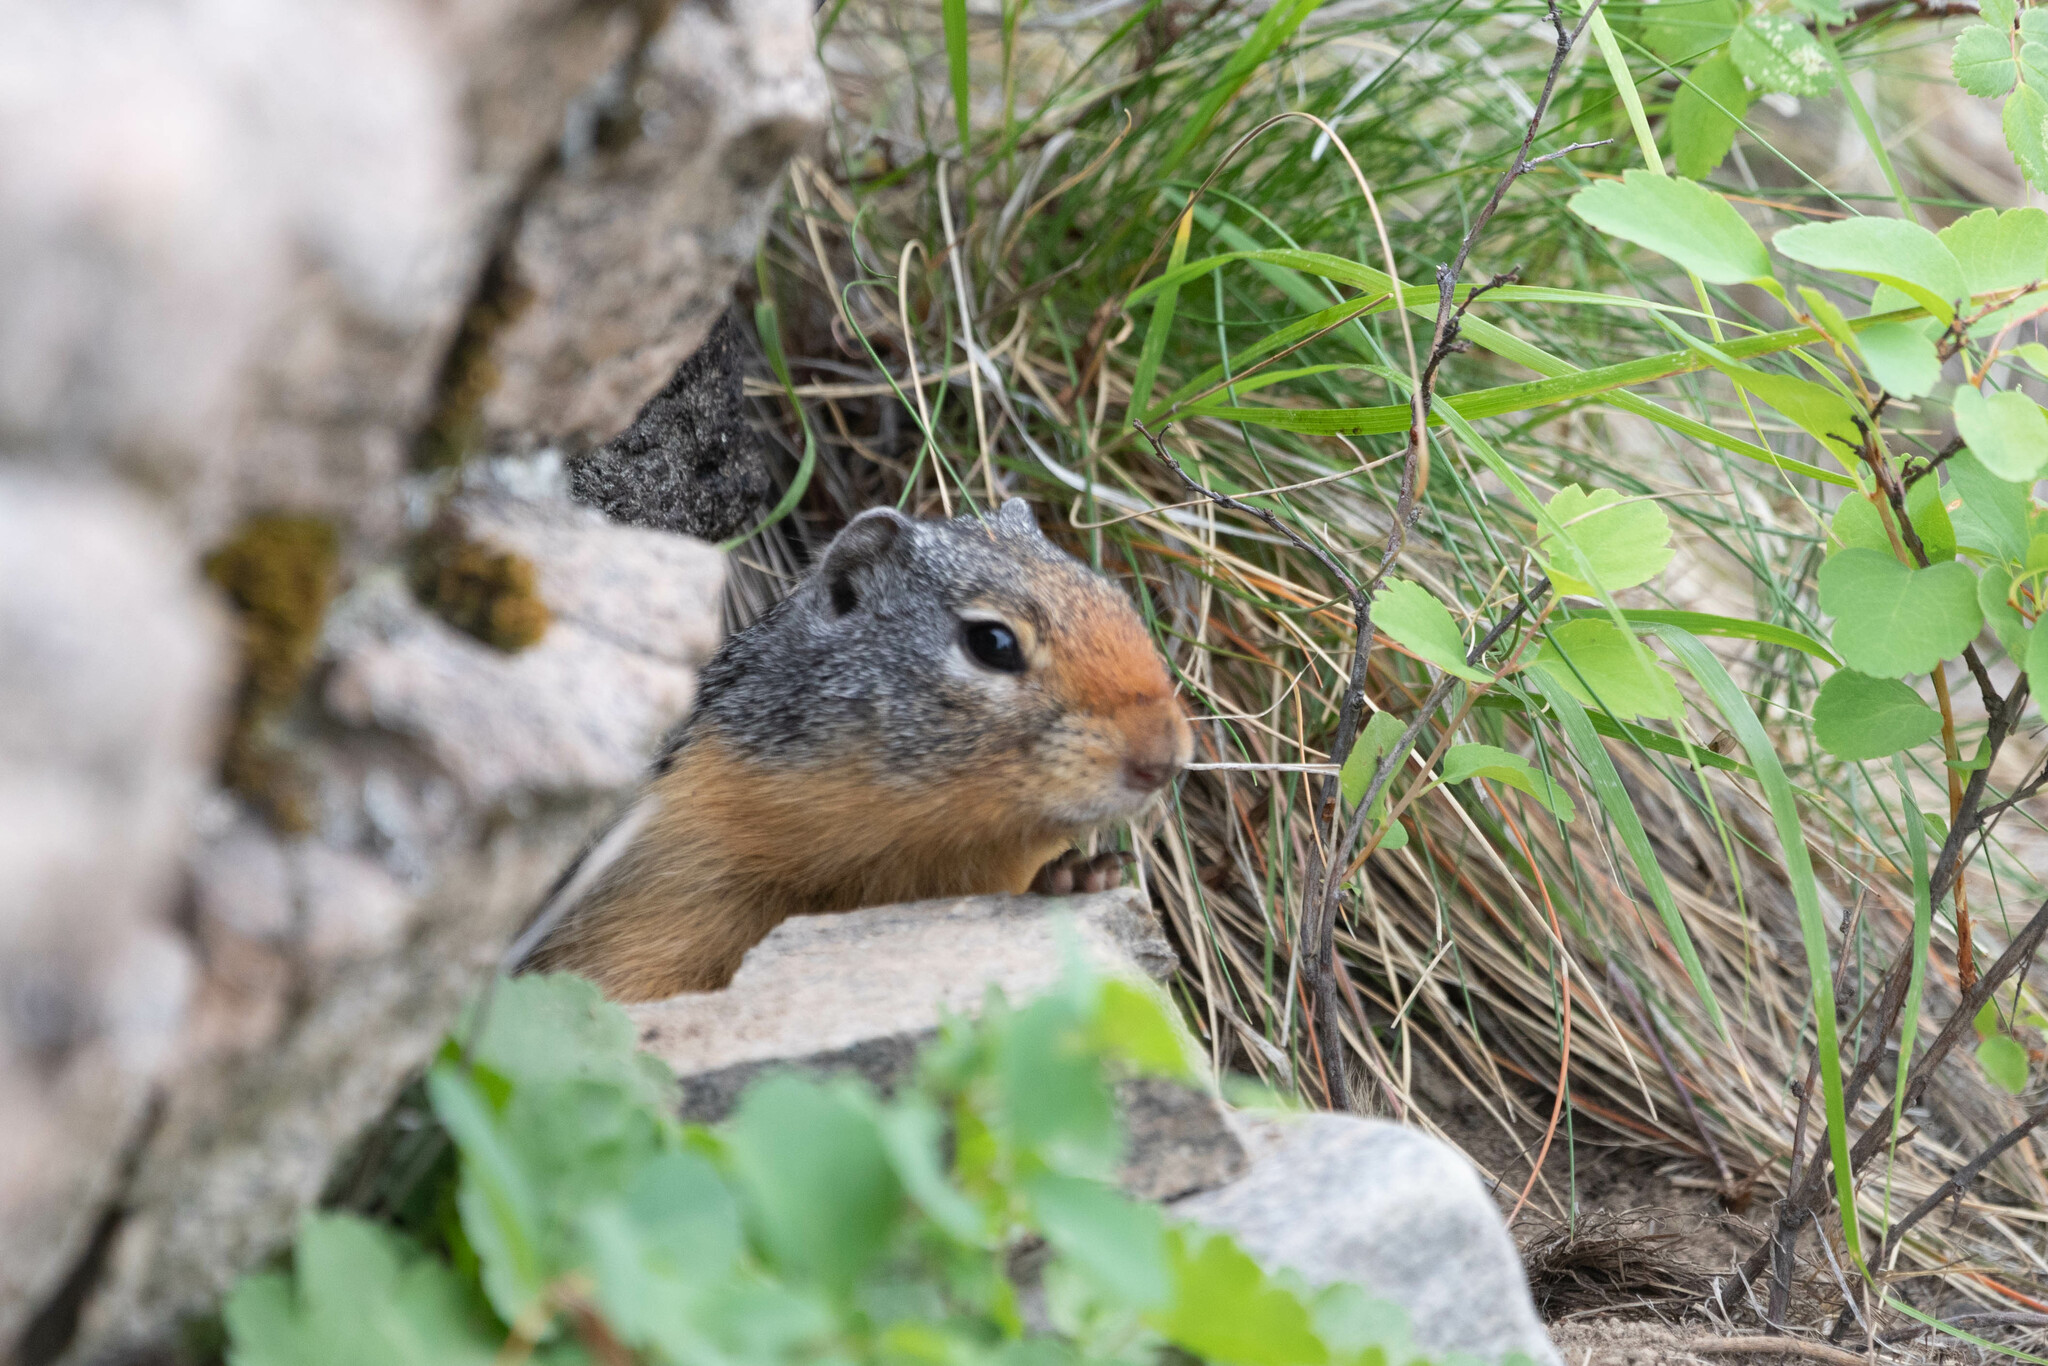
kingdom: Animalia
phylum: Chordata
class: Mammalia
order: Rodentia
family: Sciuridae
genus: Urocitellus
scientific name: Urocitellus columbianus
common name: Columbian ground squirrel
